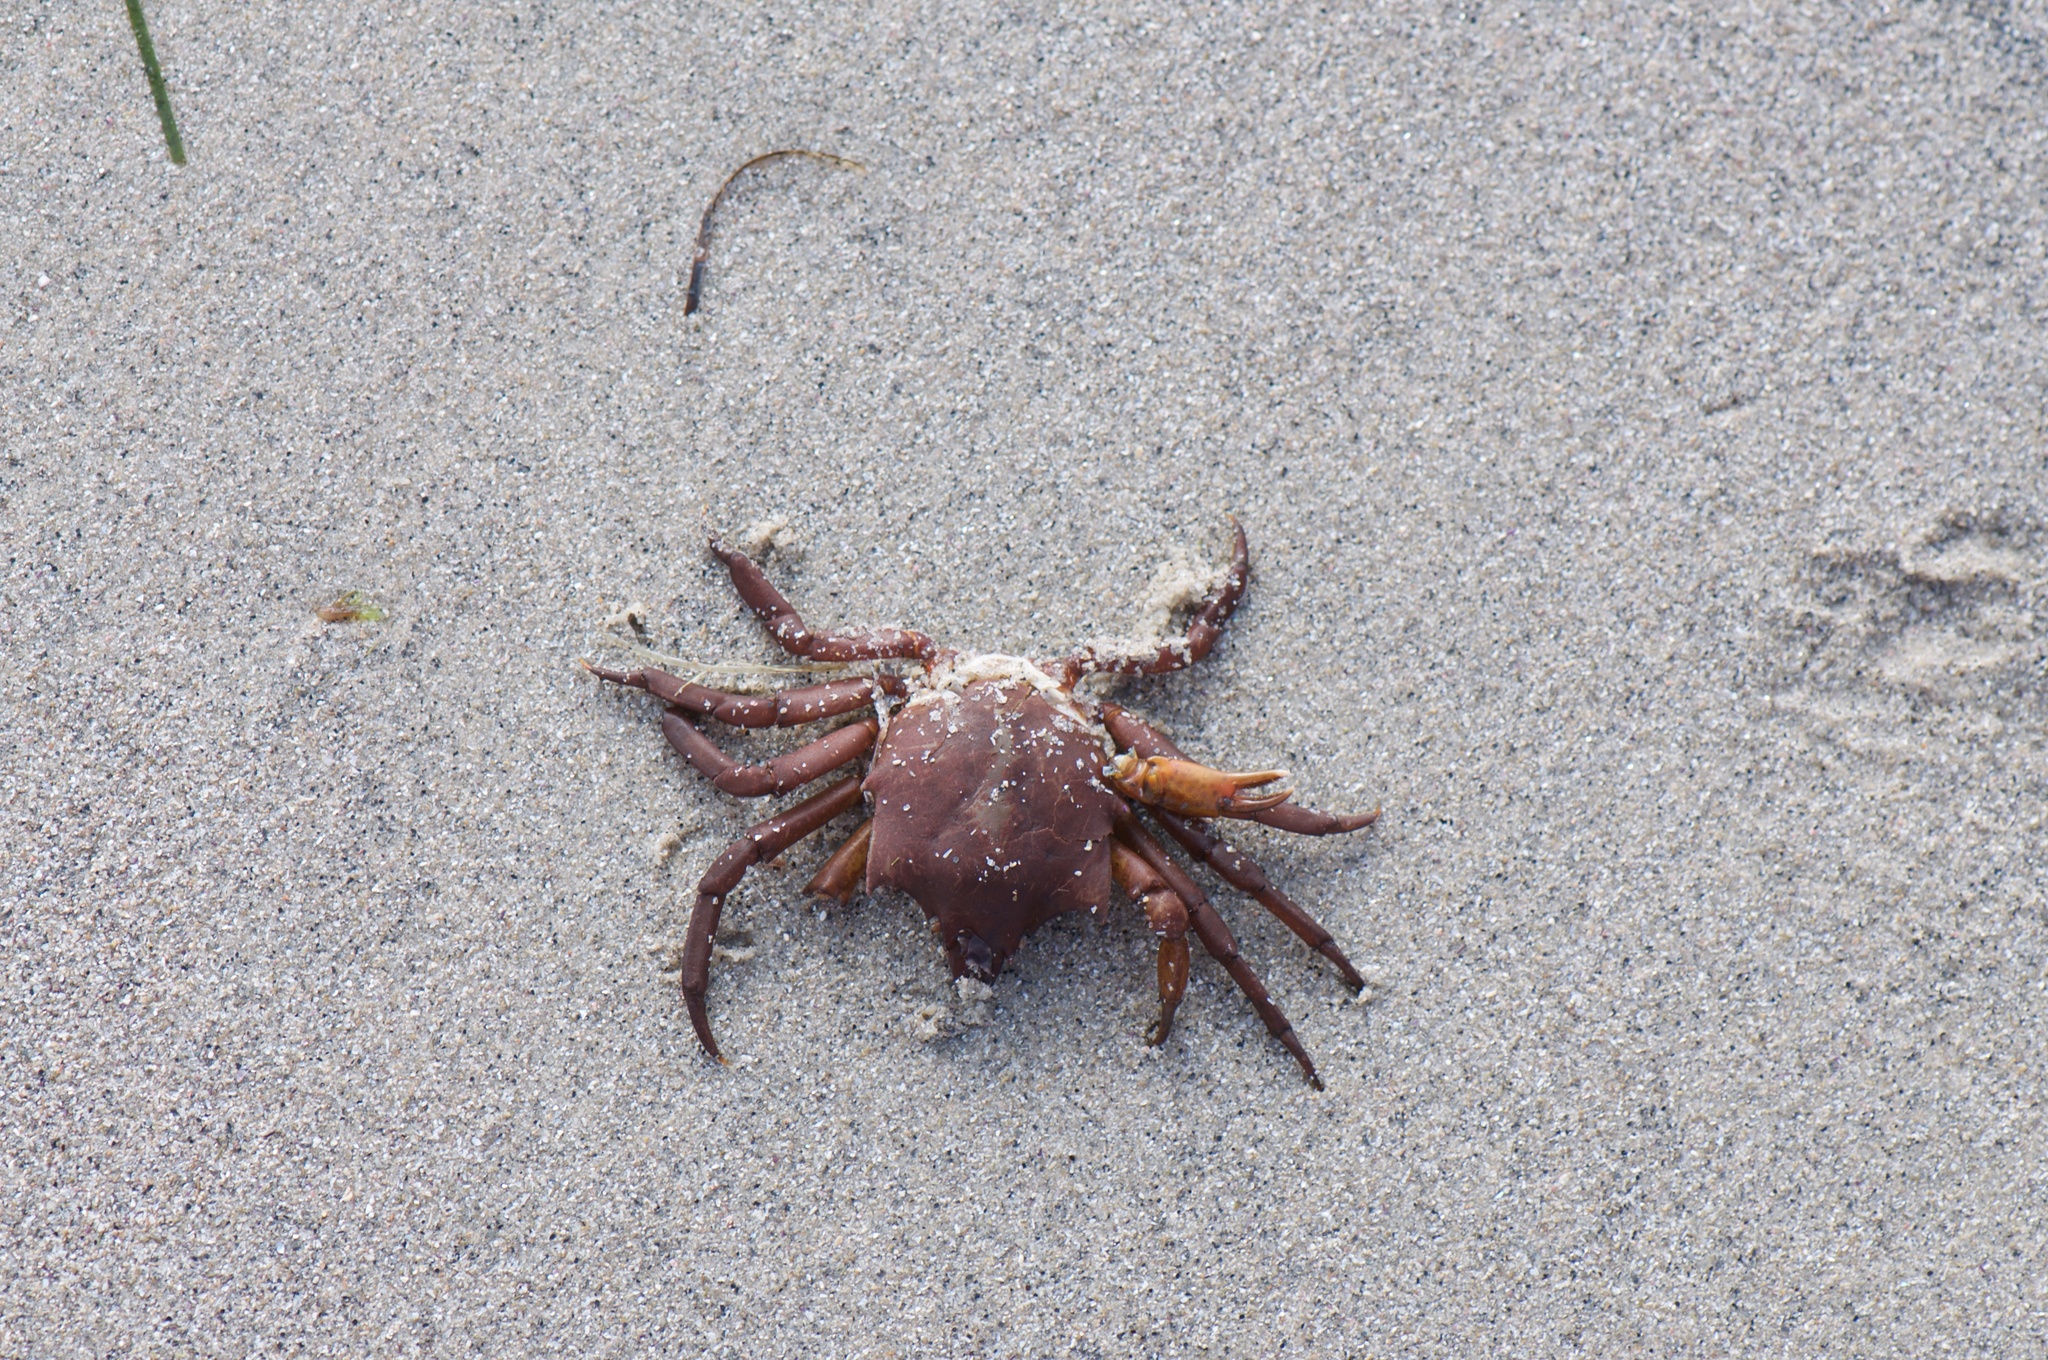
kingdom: Animalia
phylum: Arthropoda
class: Malacostraca
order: Decapoda
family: Epialtidae
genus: Pugettia
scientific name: Pugettia producta
